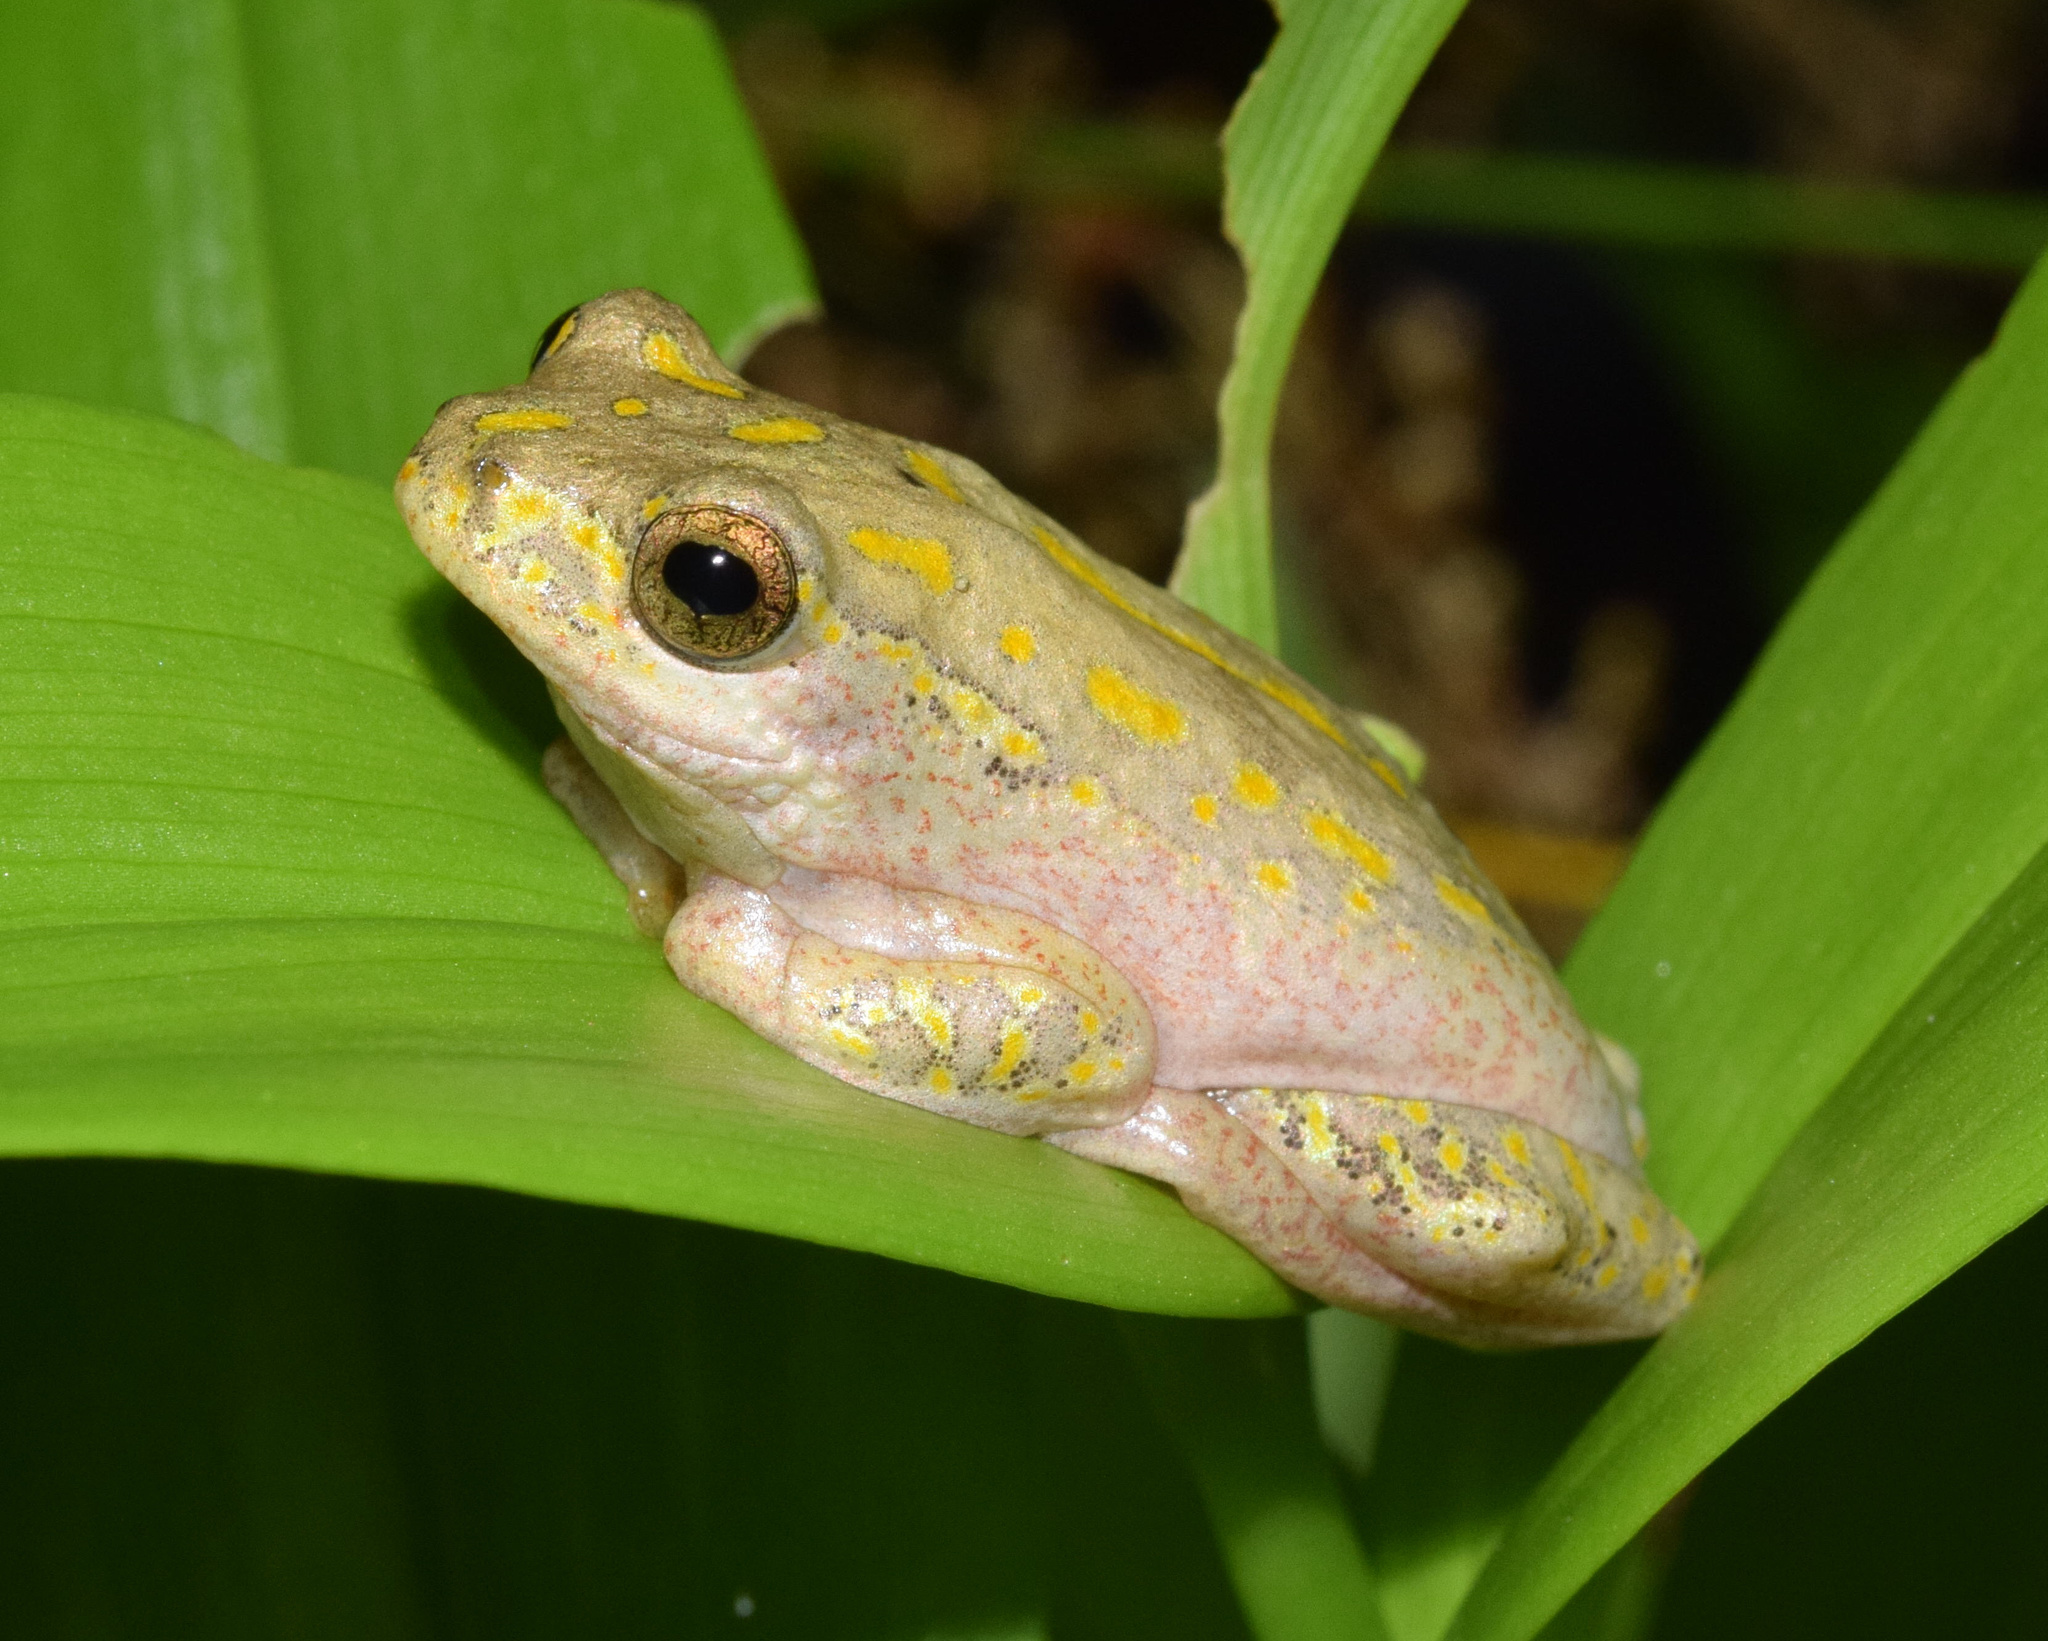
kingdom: Animalia
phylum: Chordata
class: Amphibia
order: Anura
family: Hyperoliidae
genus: Hyperolius
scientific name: Hyperolius marmoratus
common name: Painted reed frog
